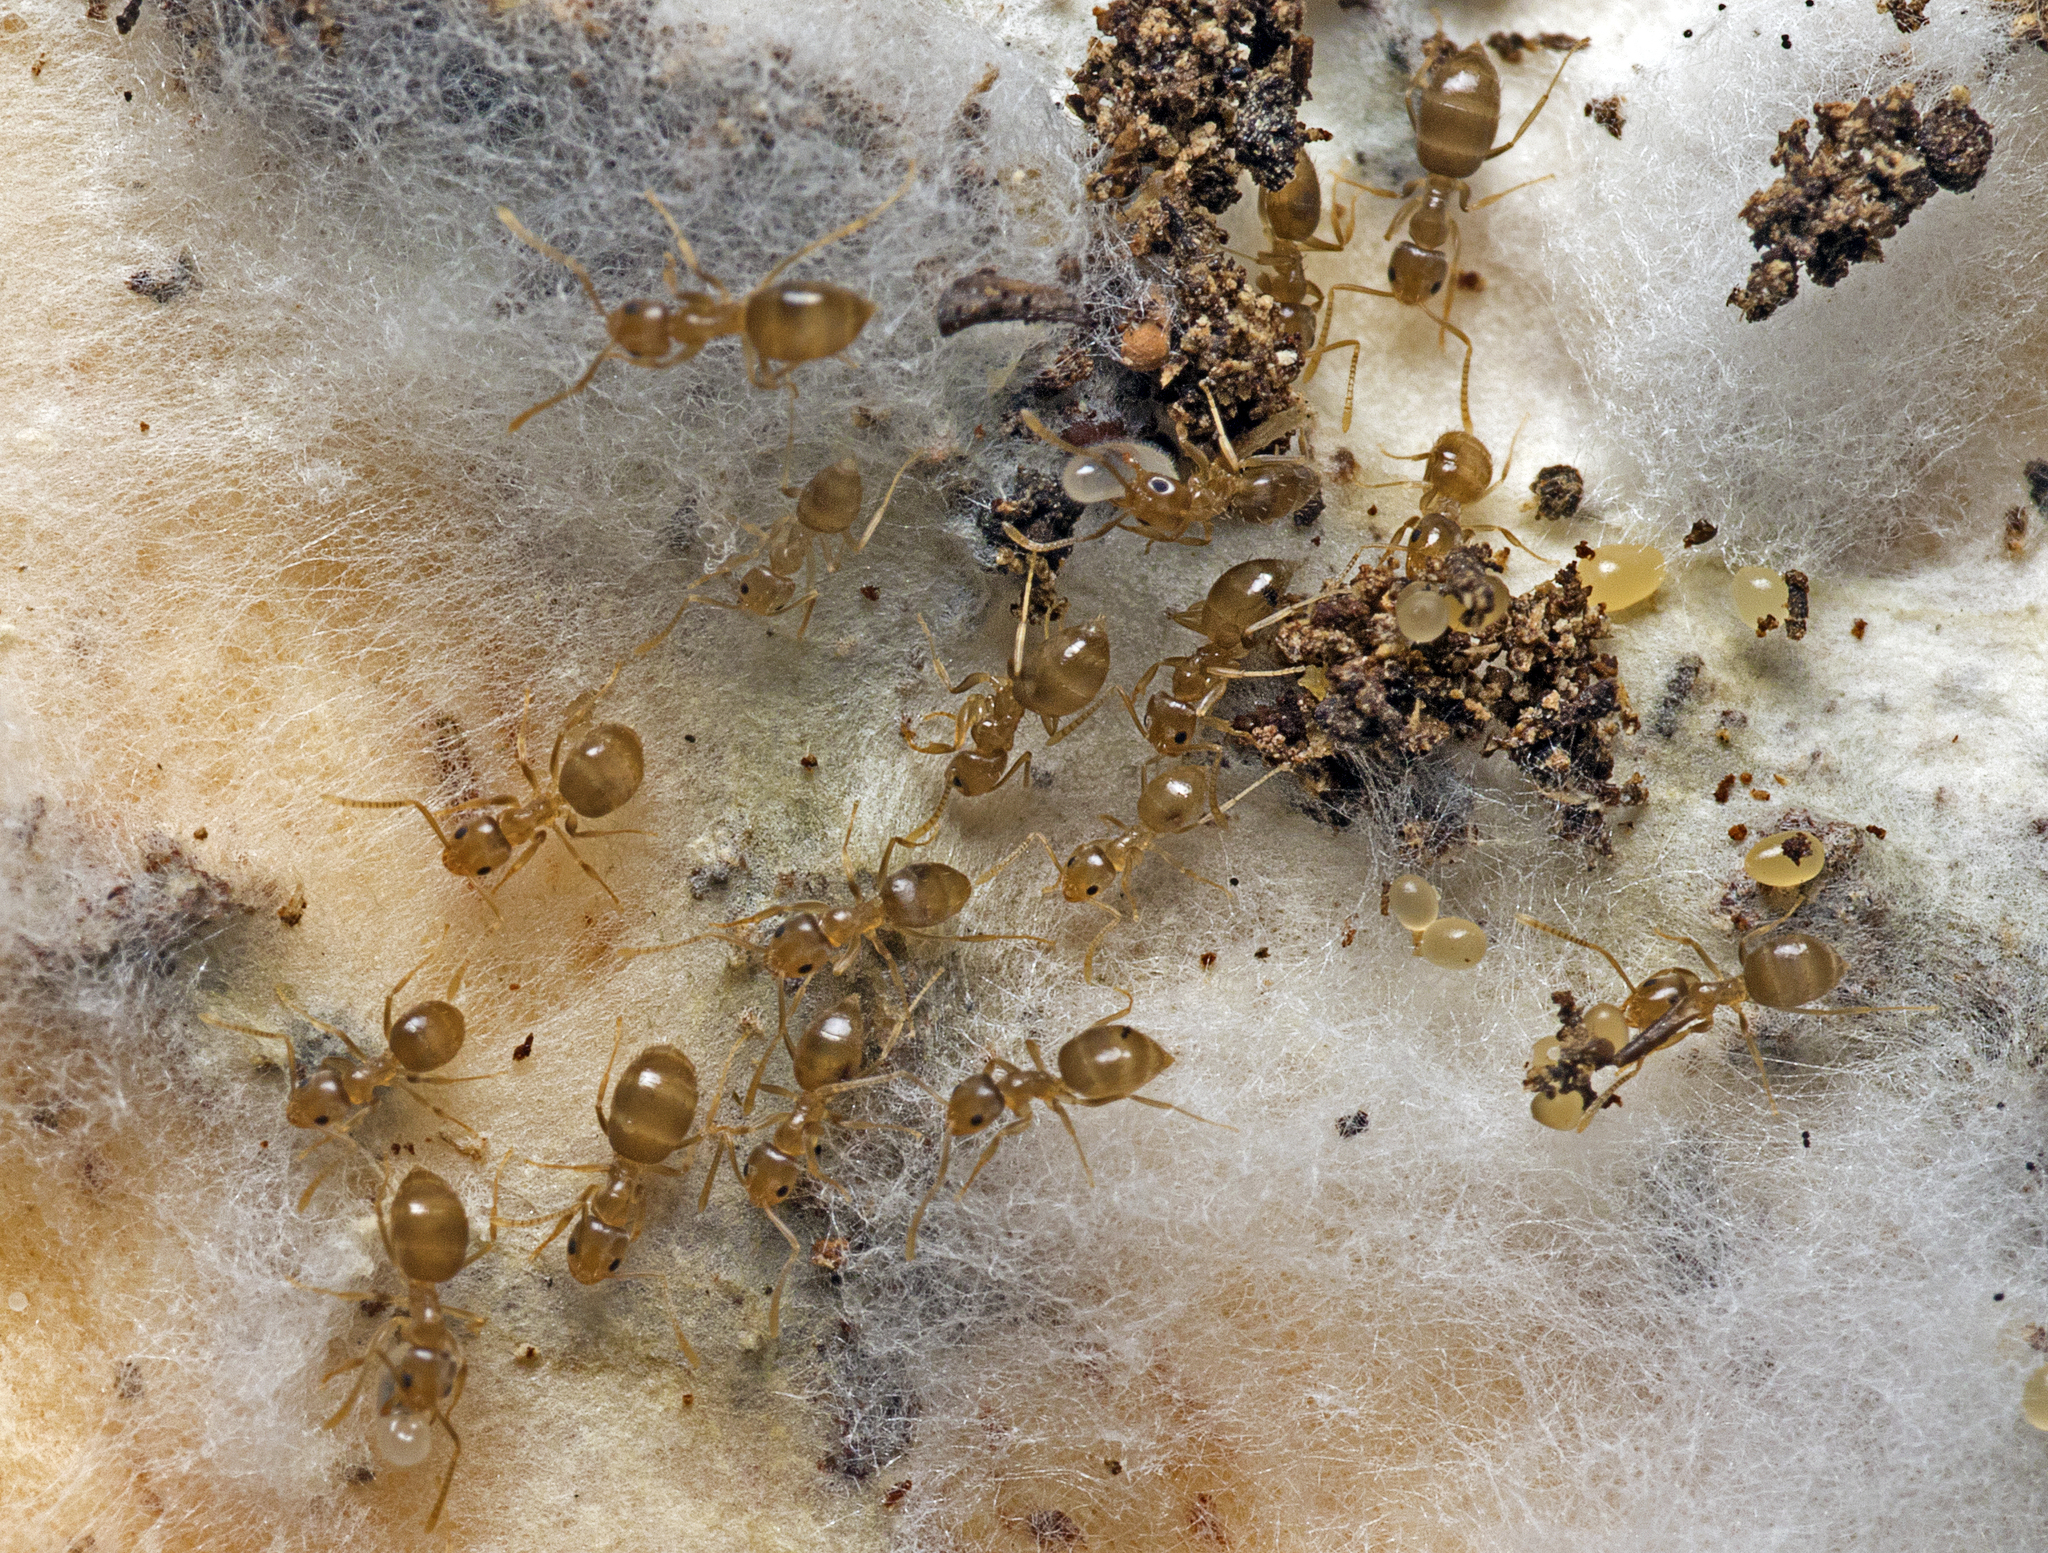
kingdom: Animalia
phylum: Arthropoda
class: Insecta
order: Hymenoptera
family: Formicidae
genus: Paraparatrechina
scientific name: Paraparatrechina minutula
